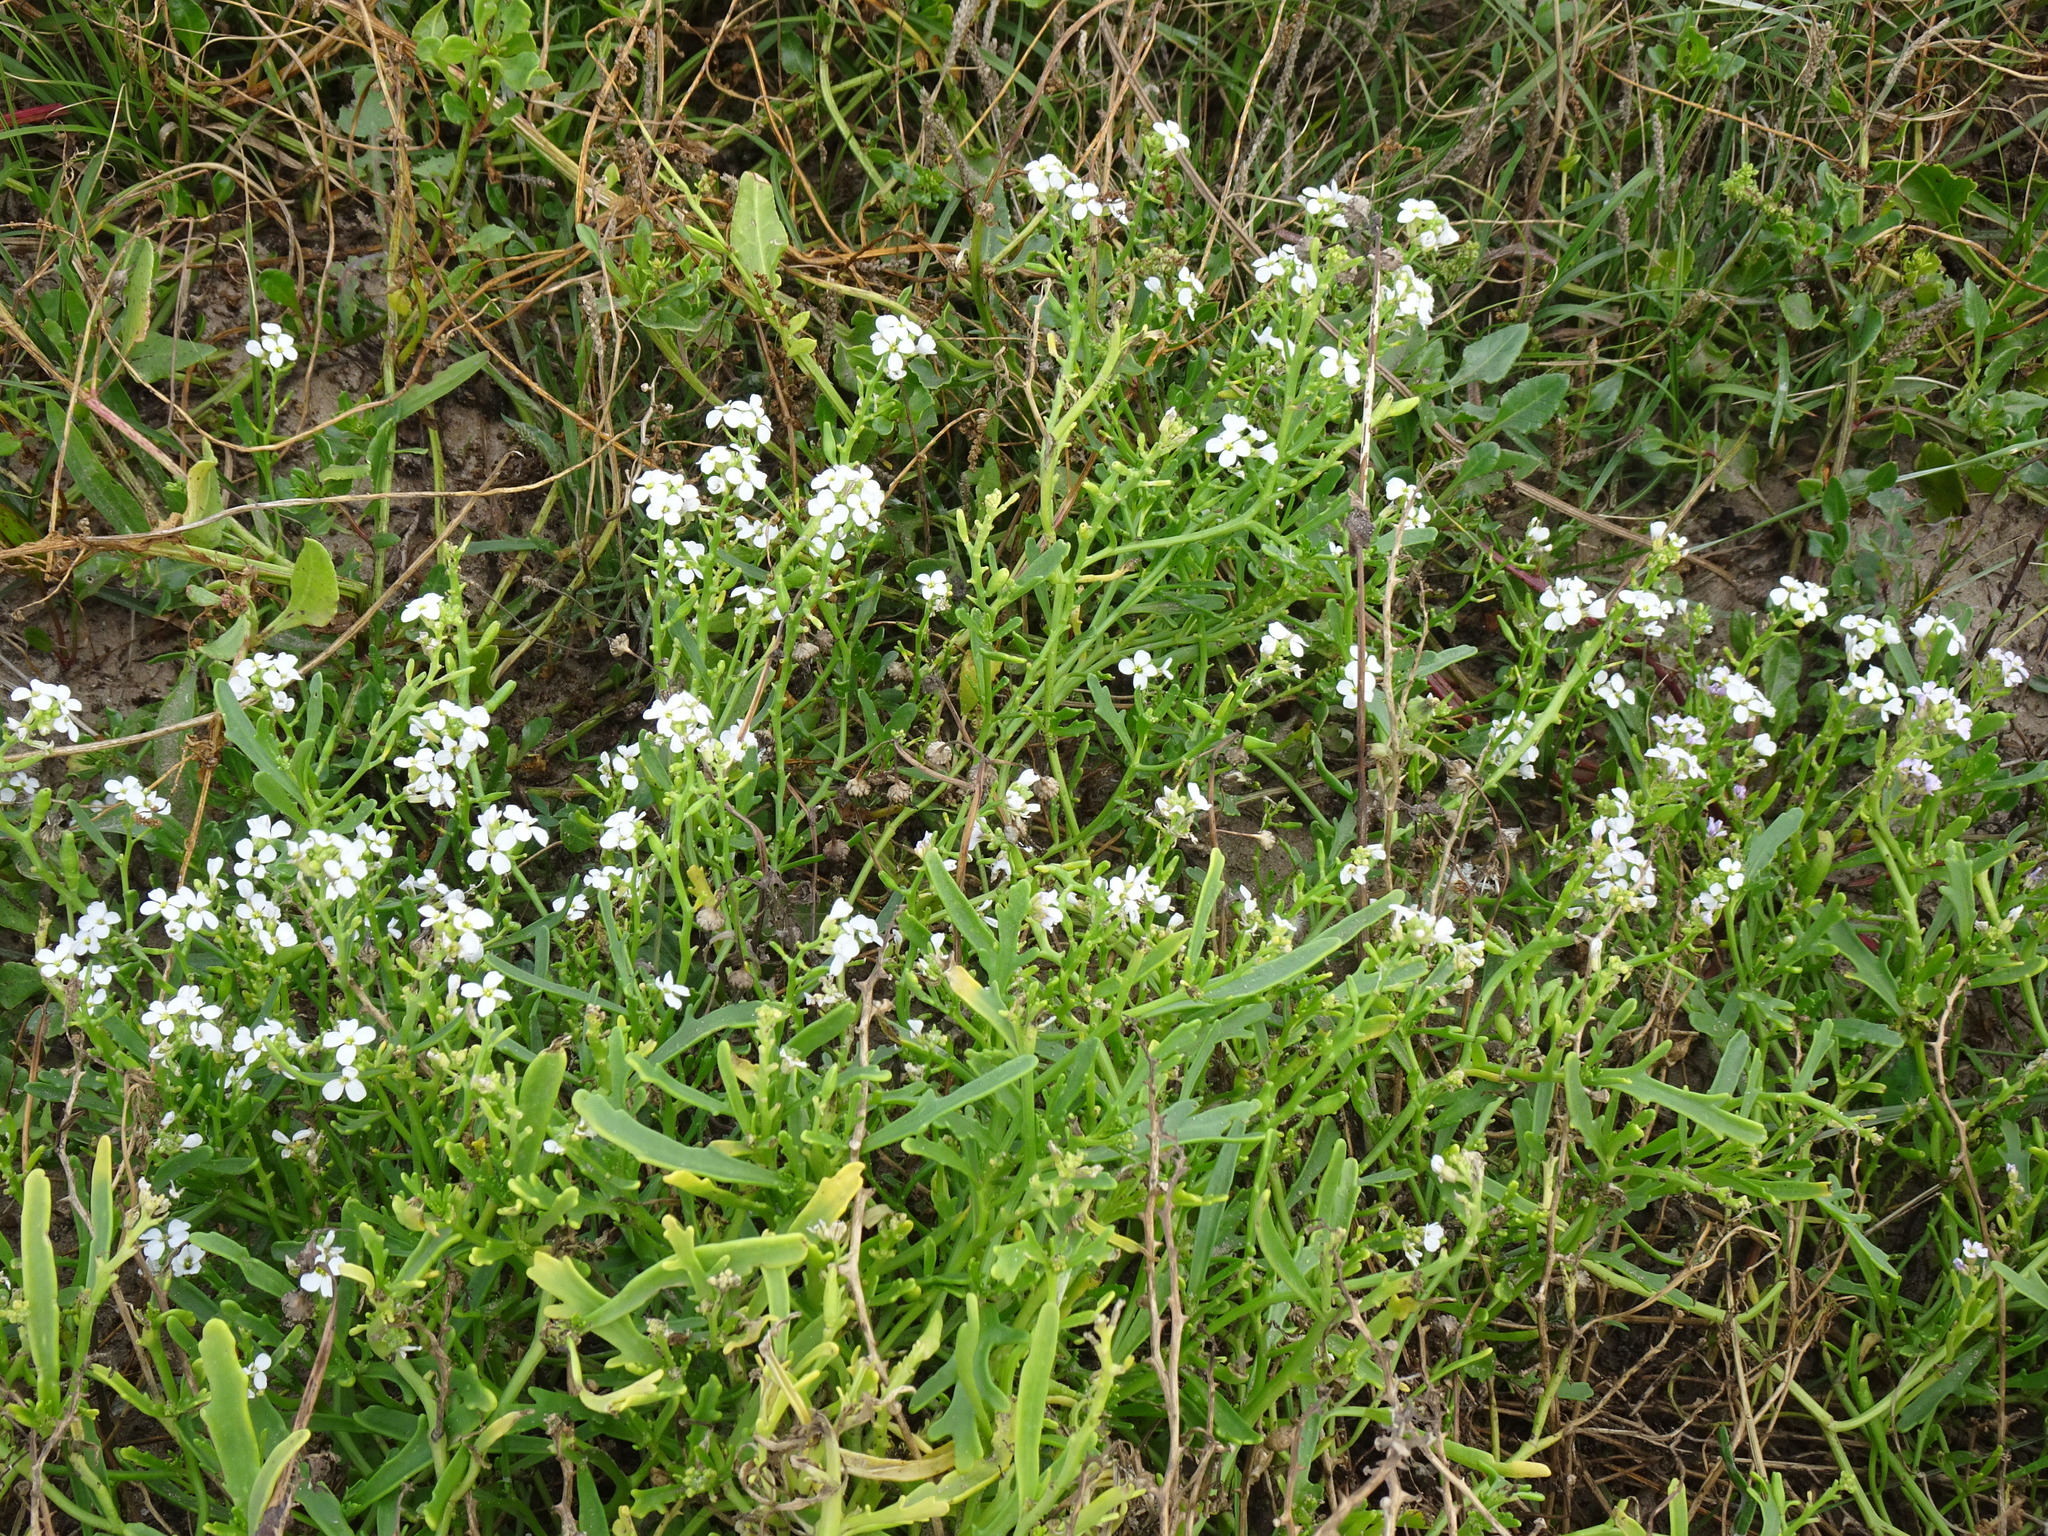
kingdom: Plantae
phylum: Tracheophyta
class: Magnoliopsida
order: Brassicales
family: Brassicaceae
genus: Cakile
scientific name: Cakile maritima
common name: Sea rocket
